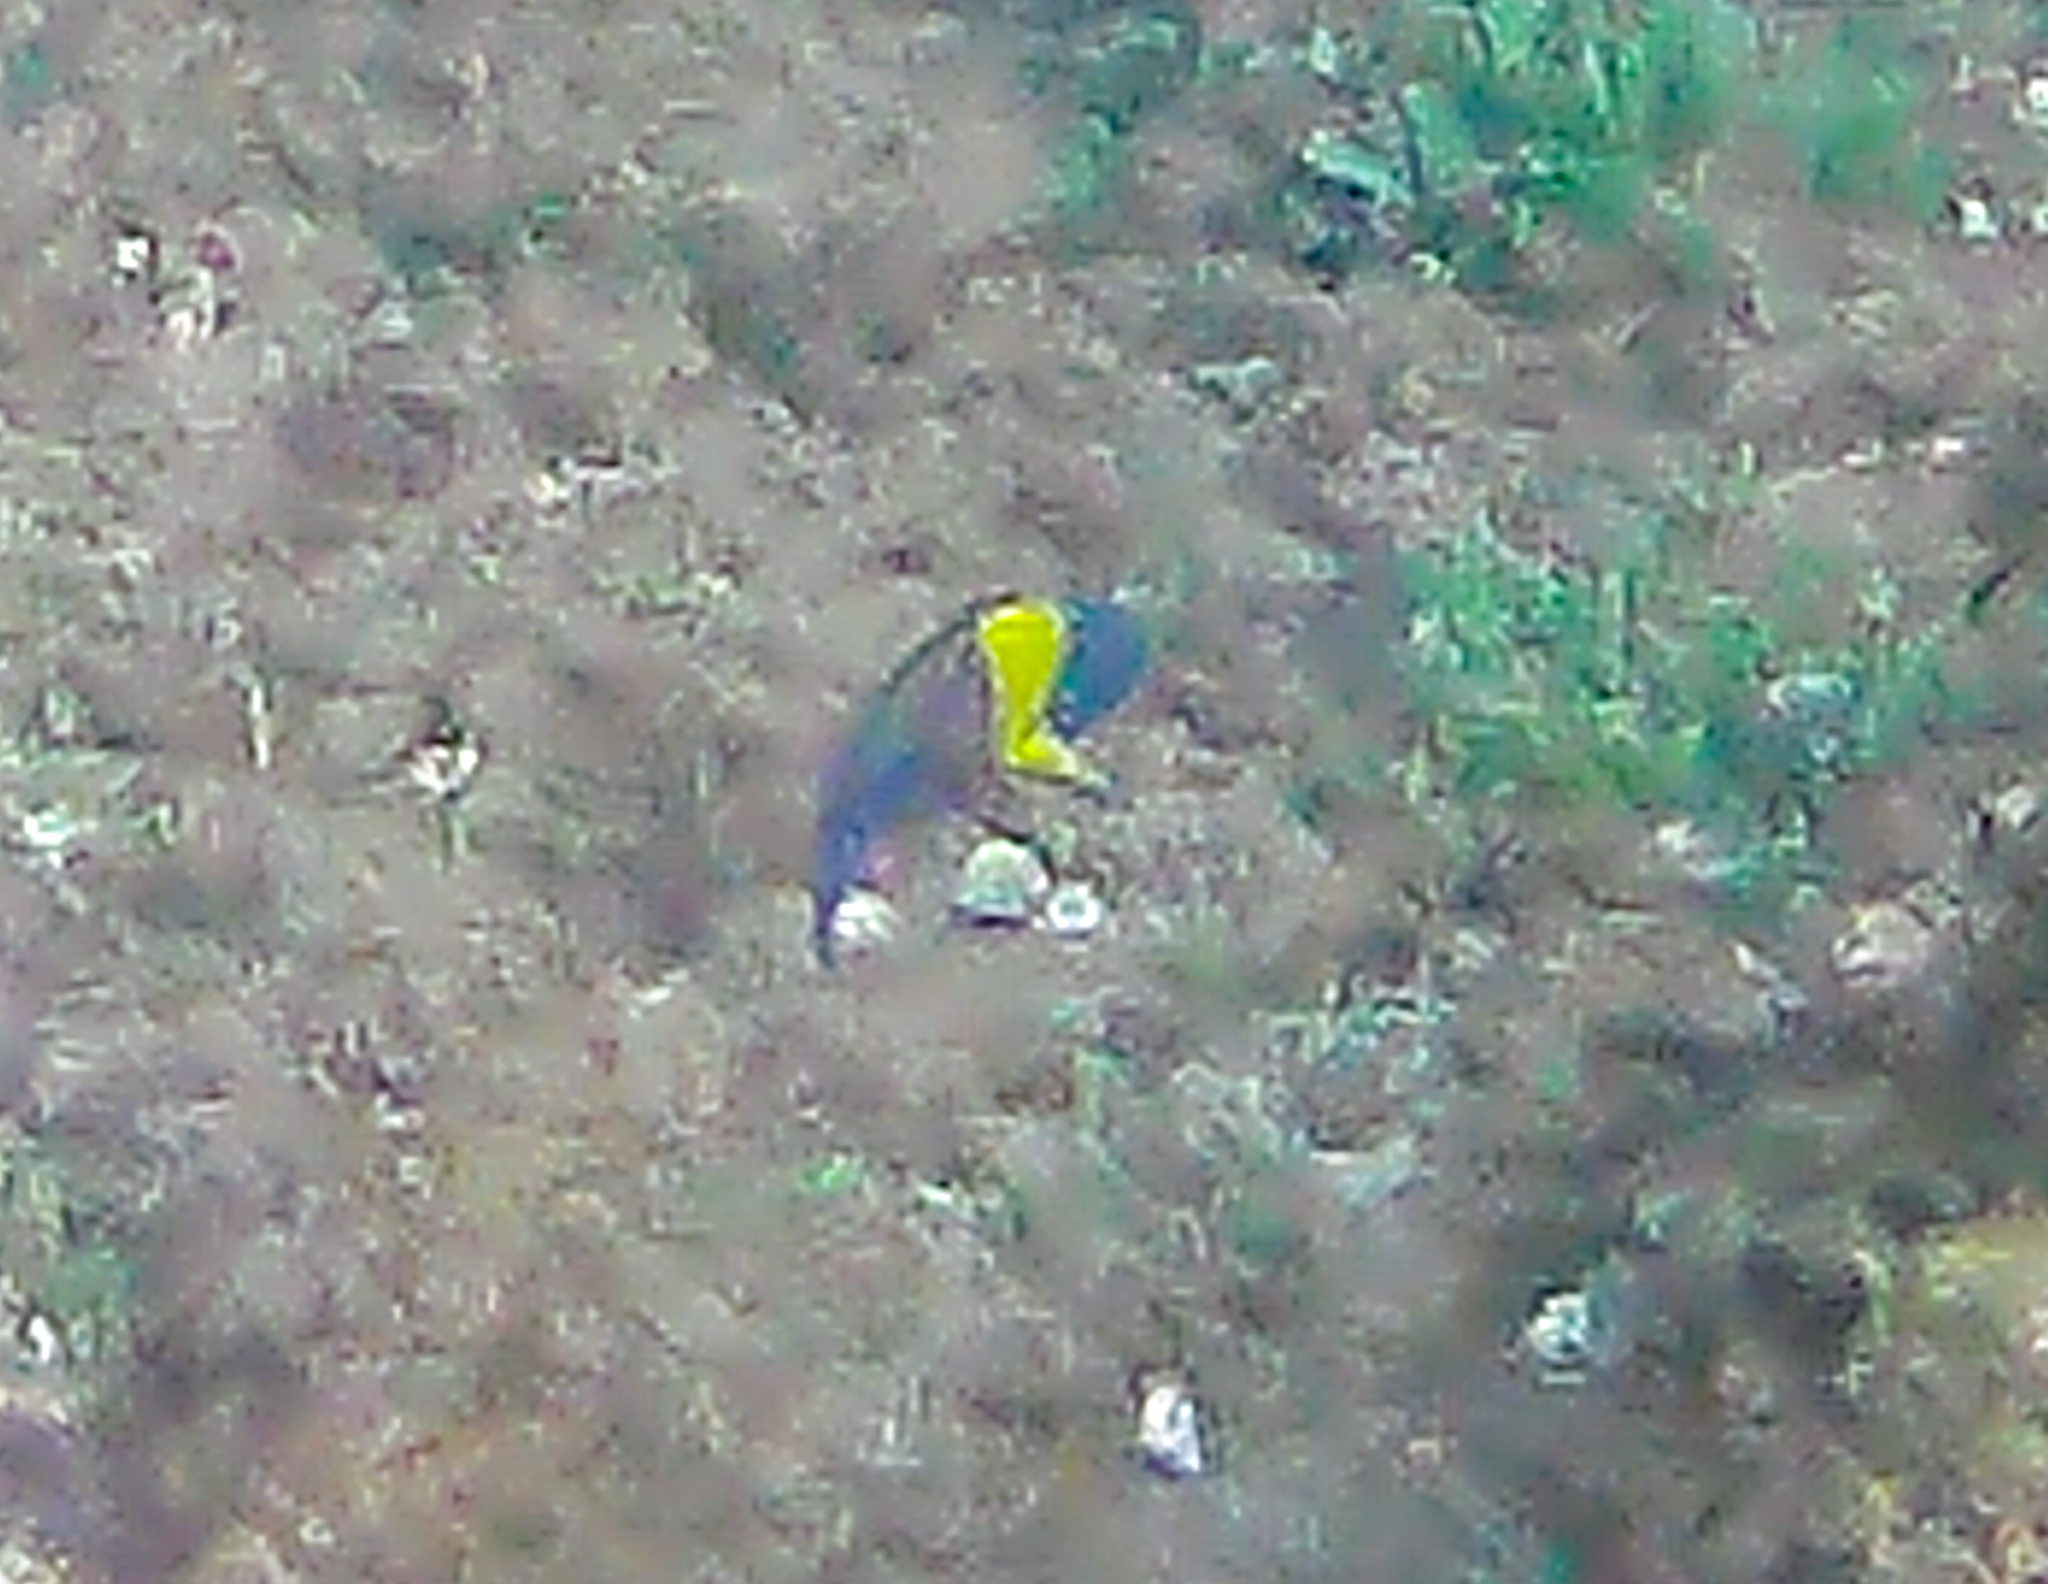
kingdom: Animalia
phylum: Chordata
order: Perciformes
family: Labridae
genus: Thalassoma
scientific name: Thalassoma lucasanum
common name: Cortez rainbow wrasse
